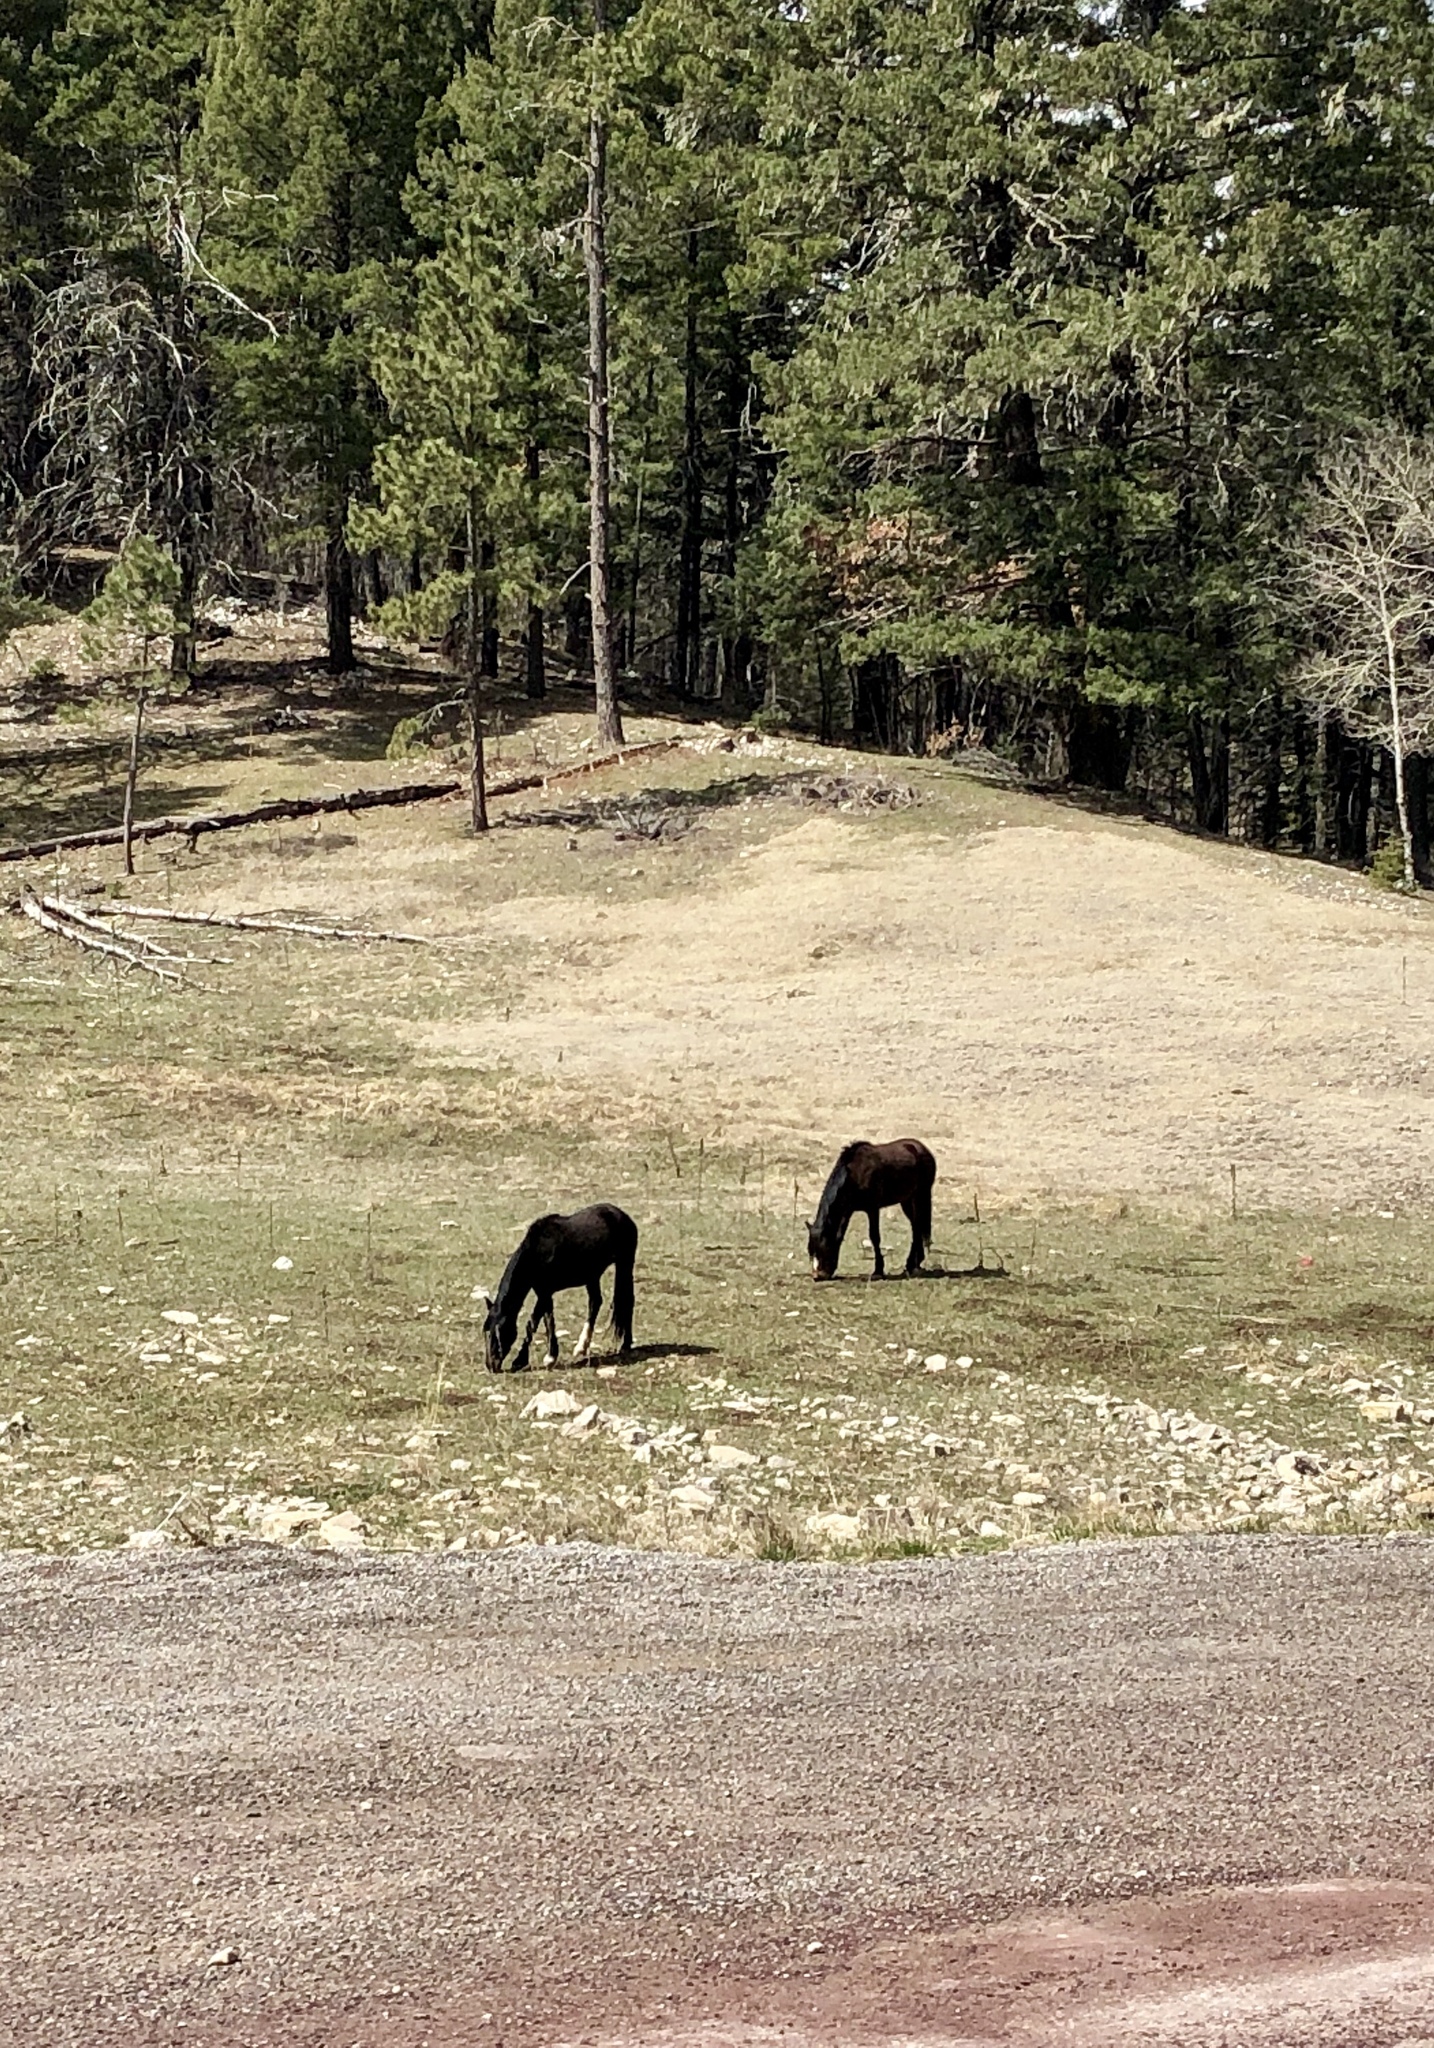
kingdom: Animalia
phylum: Chordata
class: Mammalia
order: Perissodactyla
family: Equidae
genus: Equus
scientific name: Equus caballus
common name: Horse
